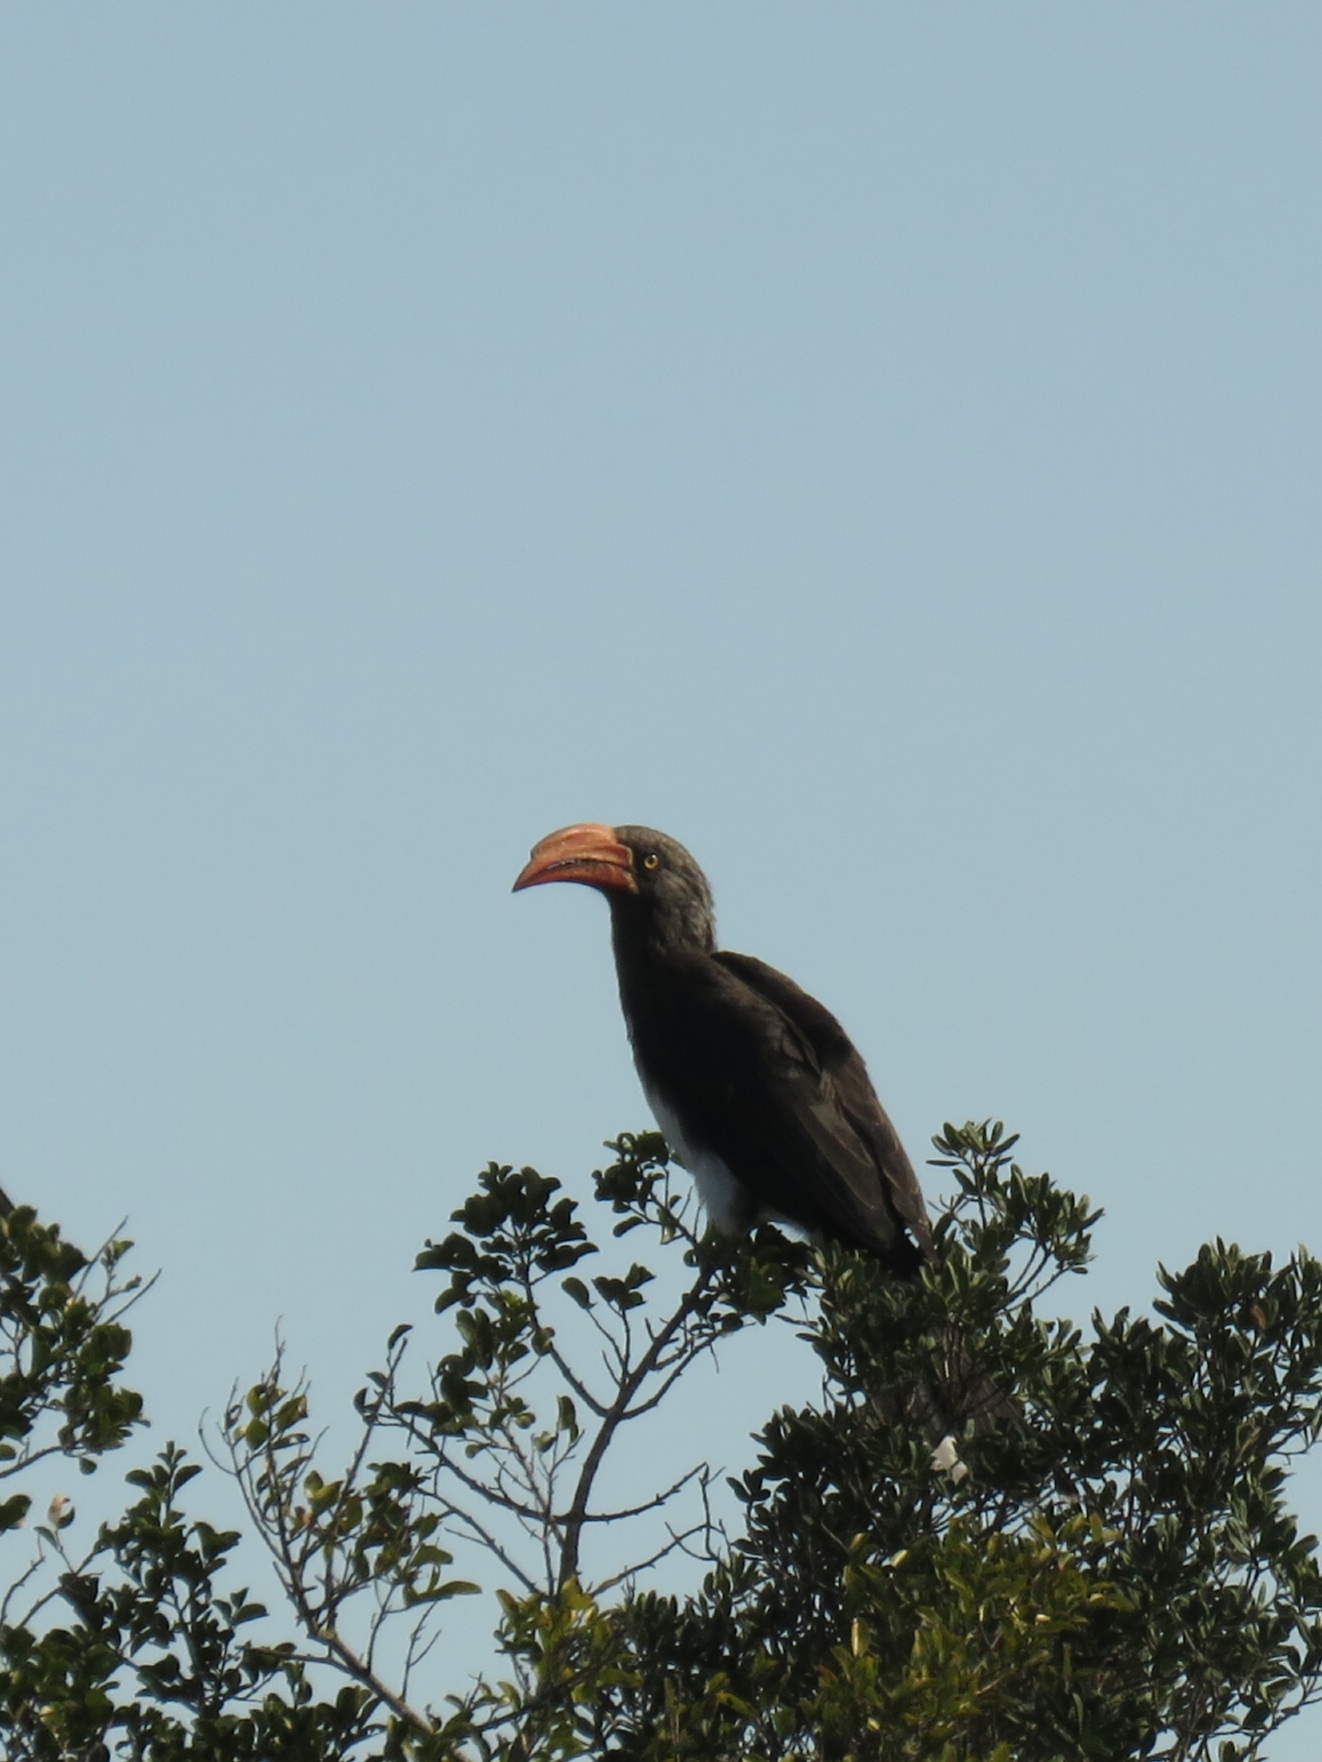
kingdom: Animalia
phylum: Chordata
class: Aves
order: Bucerotiformes
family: Bucerotidae
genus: Lophoceros
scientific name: Lophoceros alboterminatus
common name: Crowned hornbill
